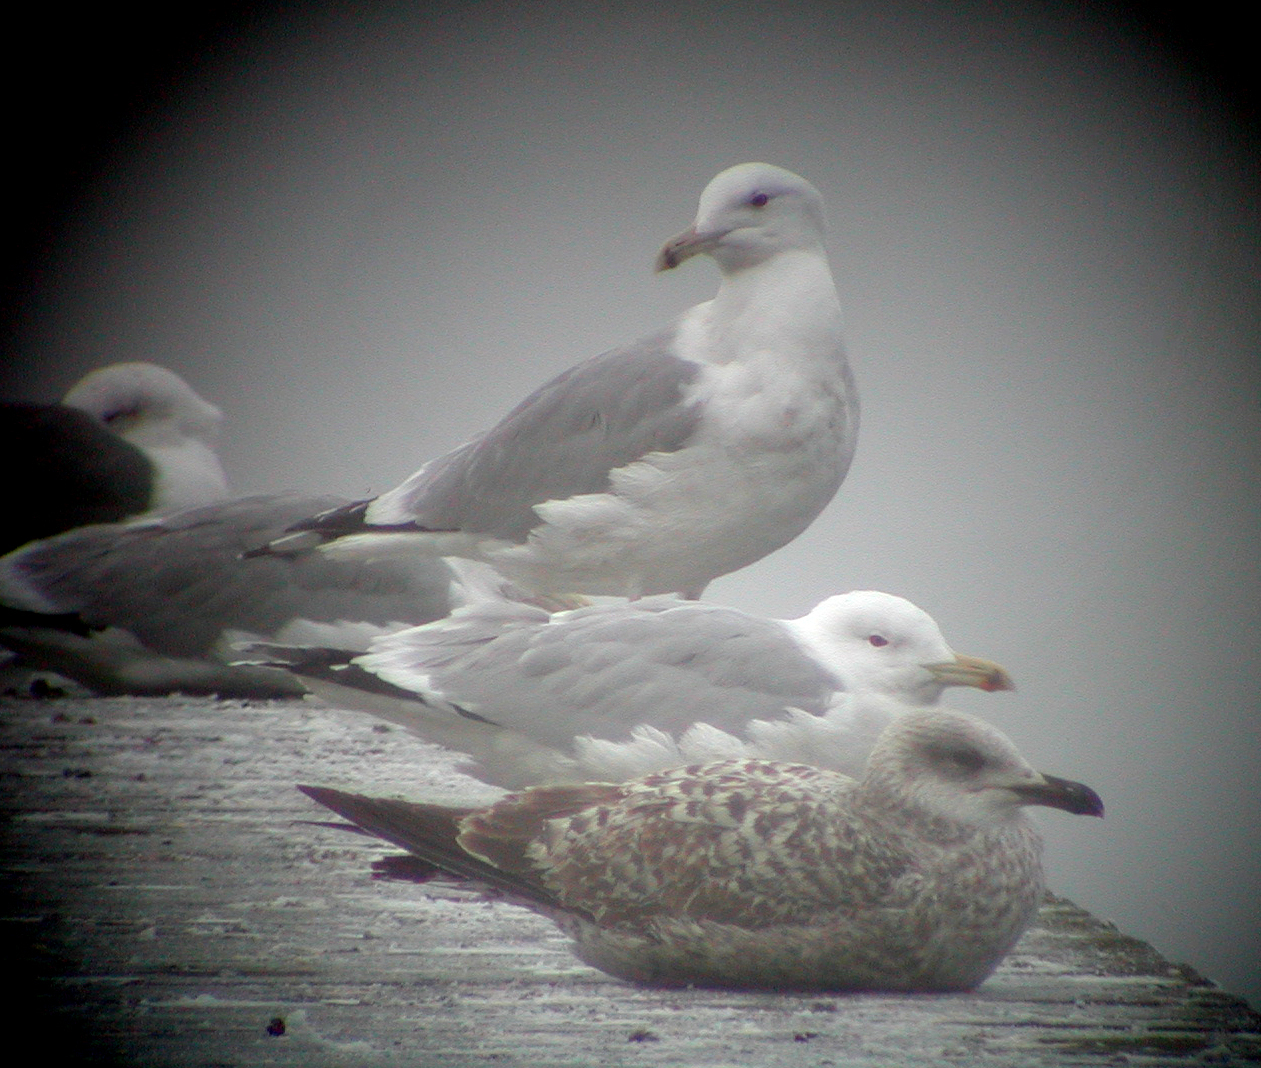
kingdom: Animalia
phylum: Chordata
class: Aves
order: Charadriiformes
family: Laridae
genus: Larus
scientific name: Larus cachinnans
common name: Caspian gull
